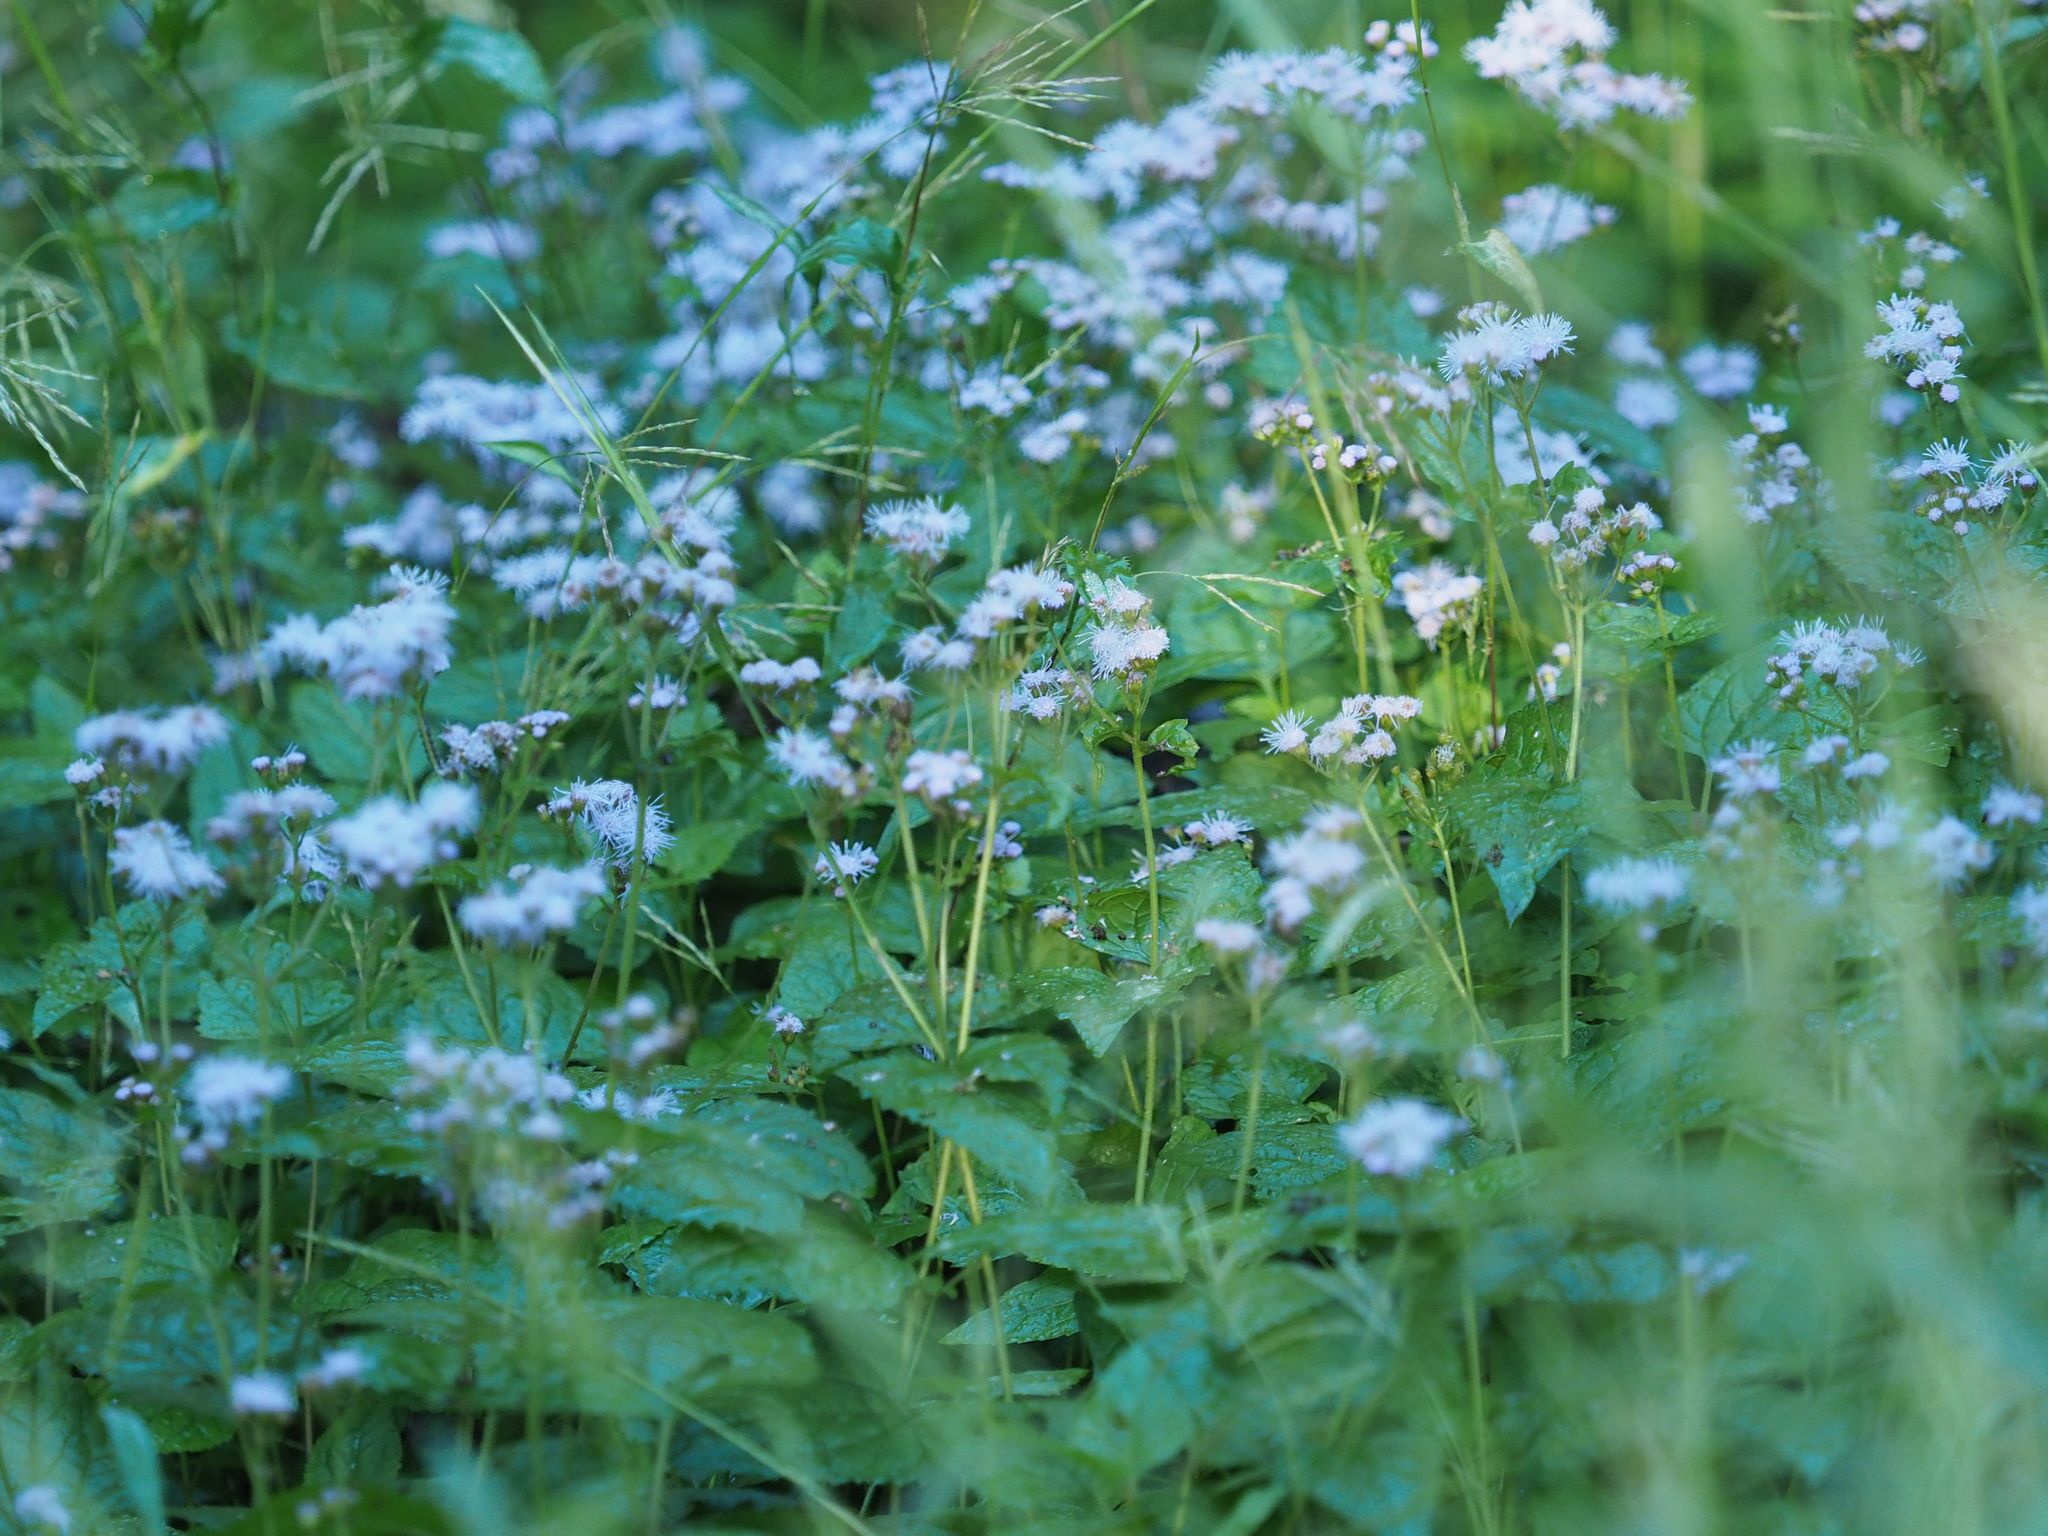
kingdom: Plantae
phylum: Tracheophyta
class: Magnoliopsida
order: Asterales
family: Asteraceae
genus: Conoclinium
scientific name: Conoclinium coelestinum
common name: Blue mistflower
